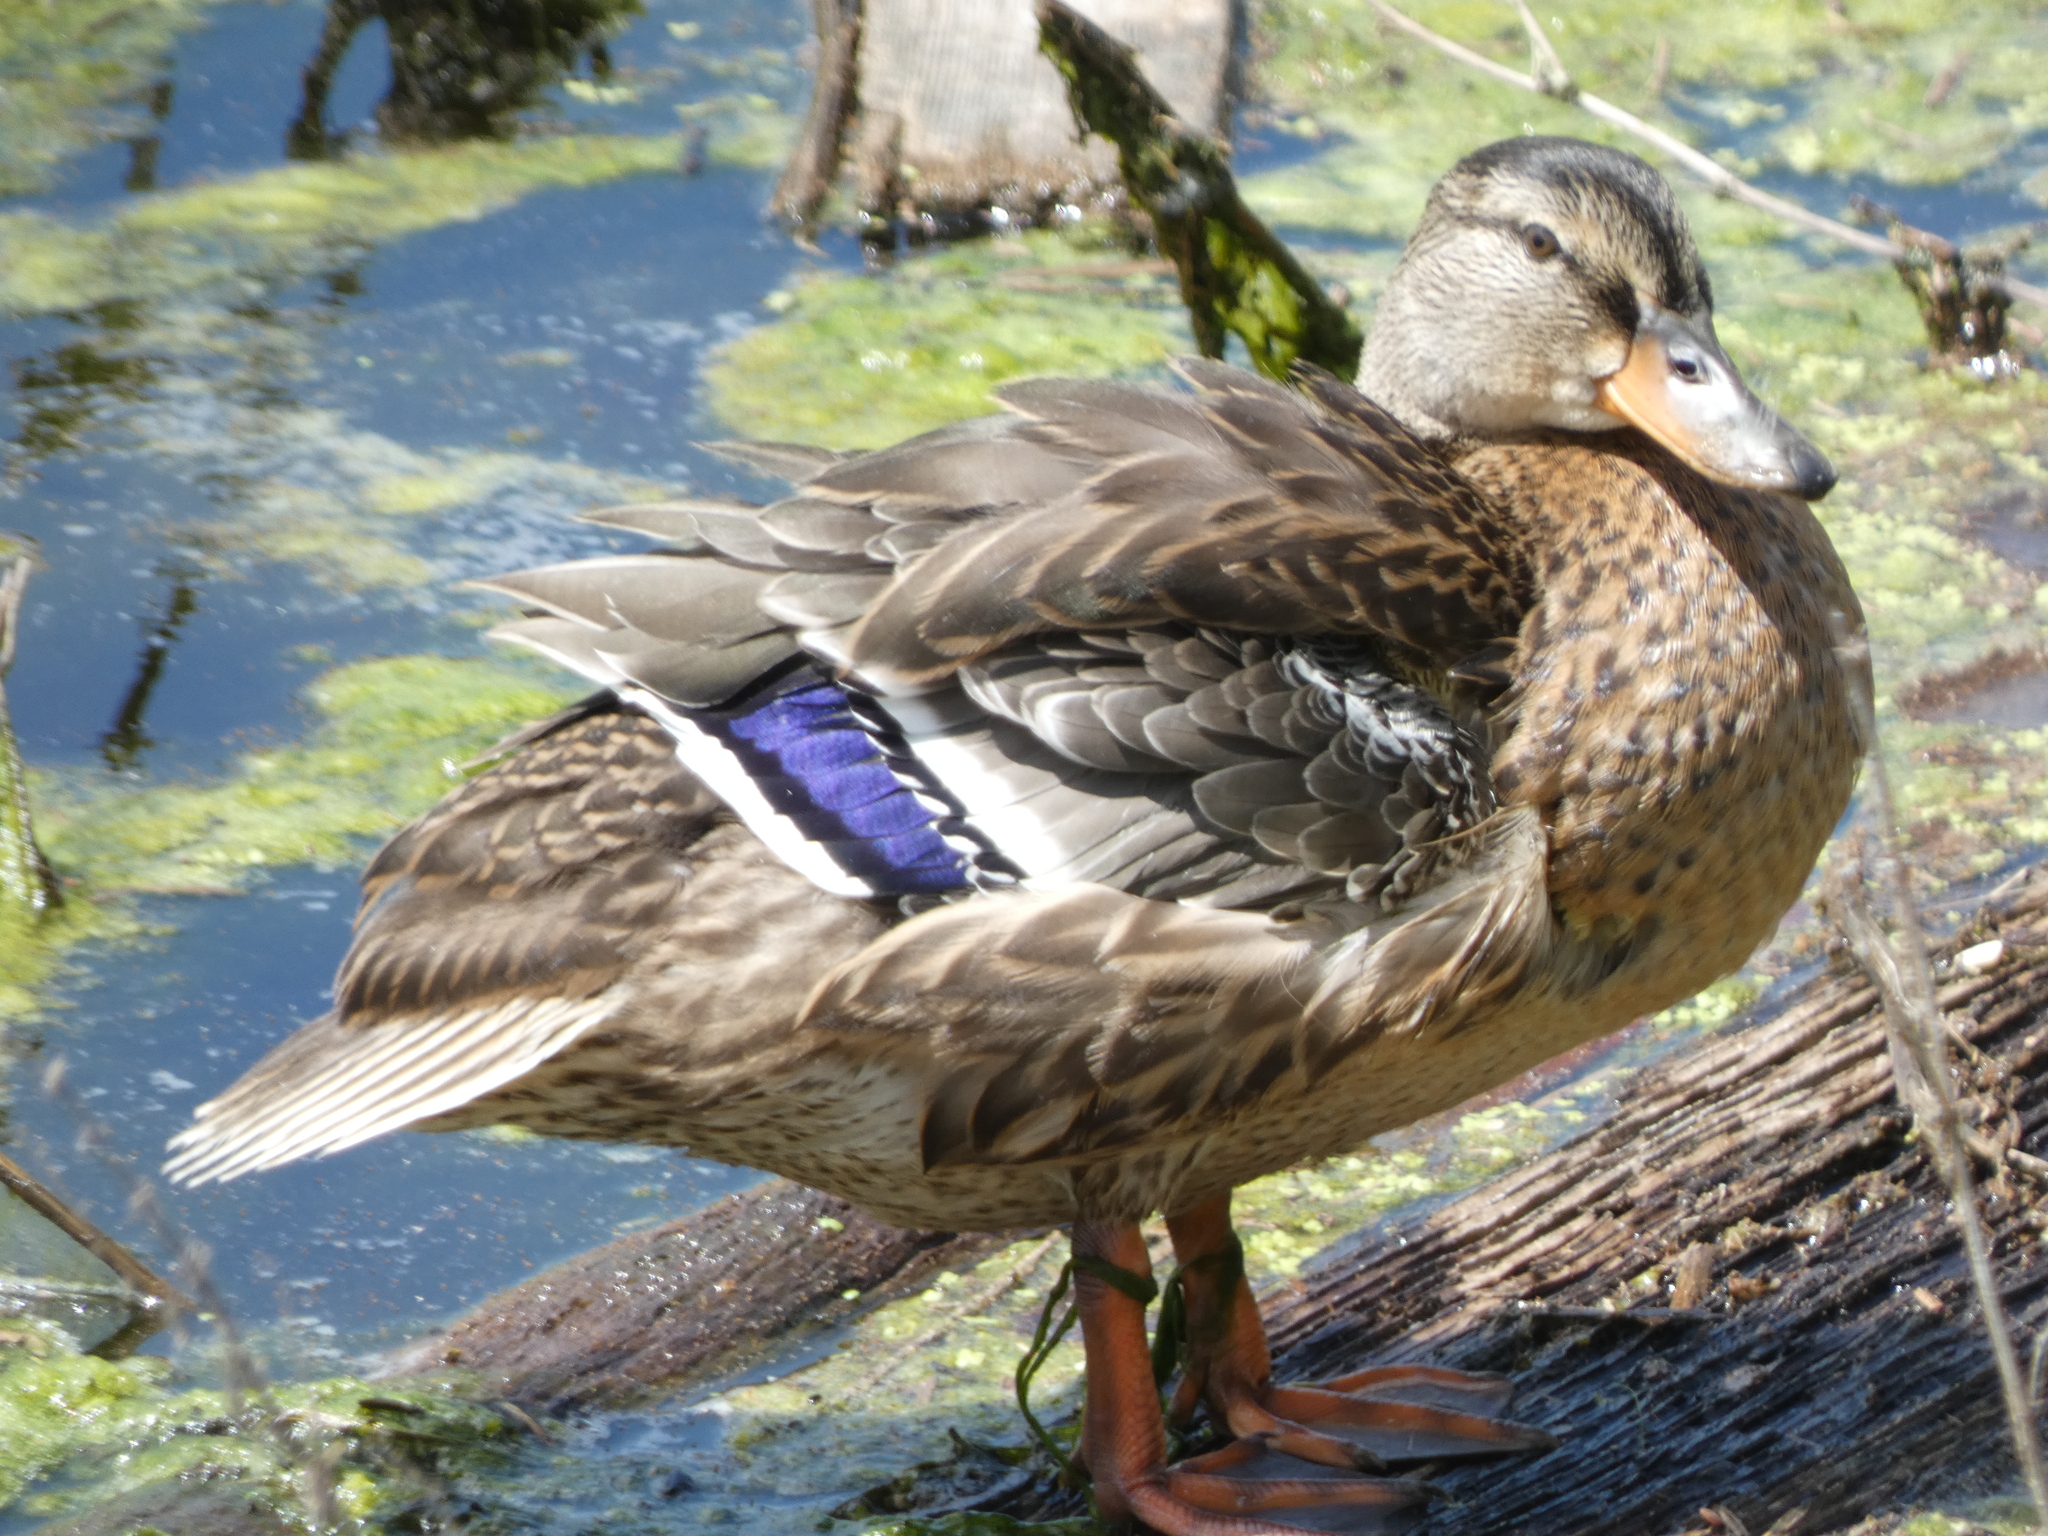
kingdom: Animalia
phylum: Chordata
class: Aves
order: Anseriformes
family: Anatidae
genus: Anas
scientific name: Anas platyrhynchos
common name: Mallard
